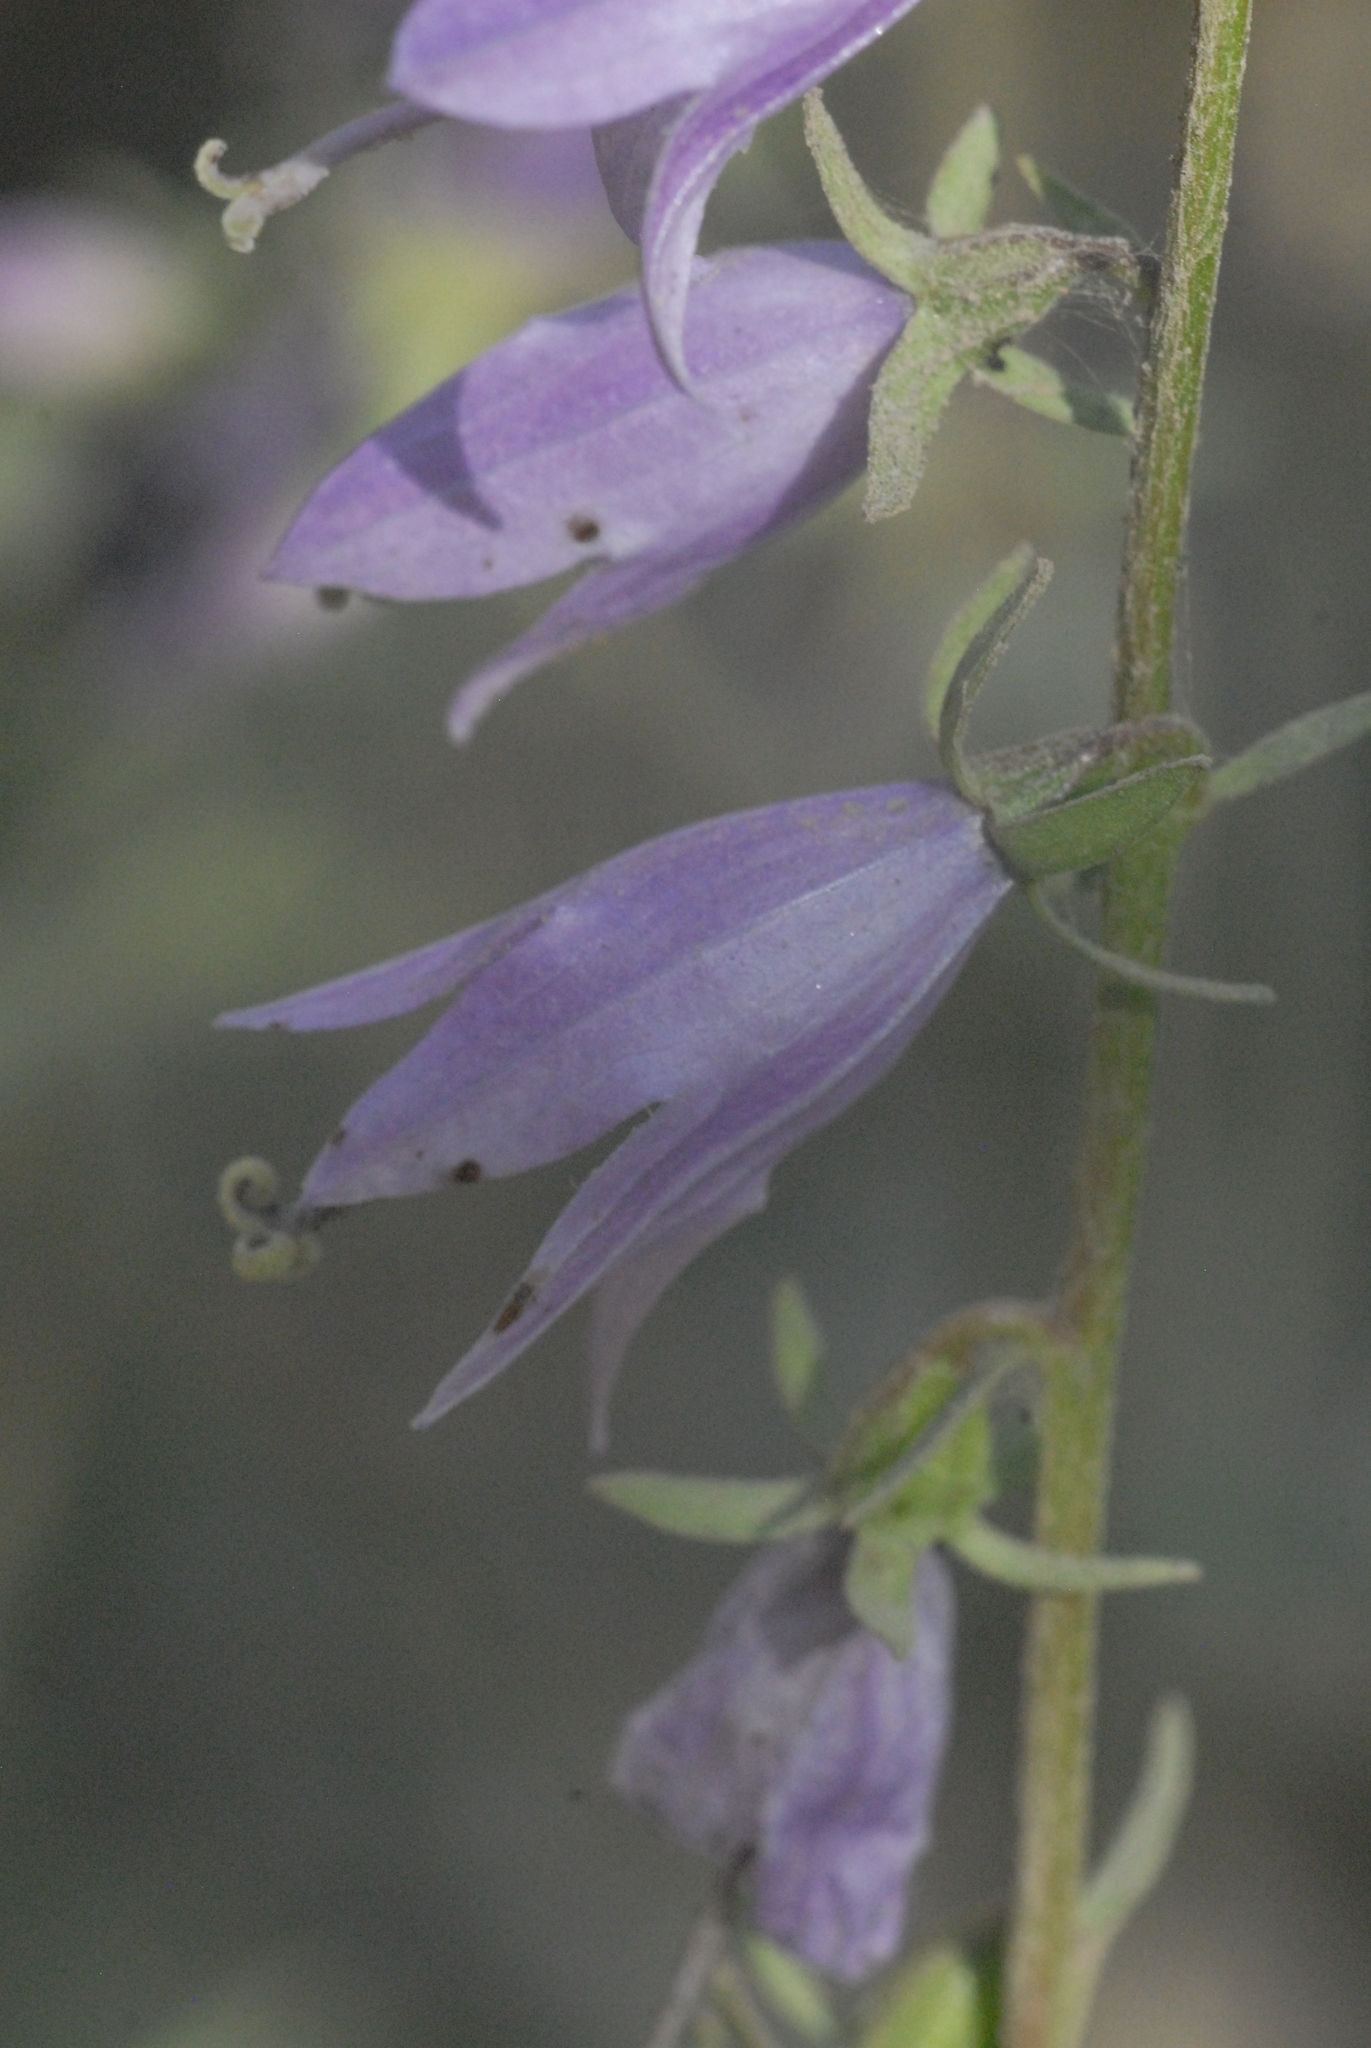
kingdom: Plantae
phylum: Tracheophyta
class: Magnoliopsida
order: Asterales
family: Campanulaceae
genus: Campanula
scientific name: Campanula rapunculoides
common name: Creeping bellflower
